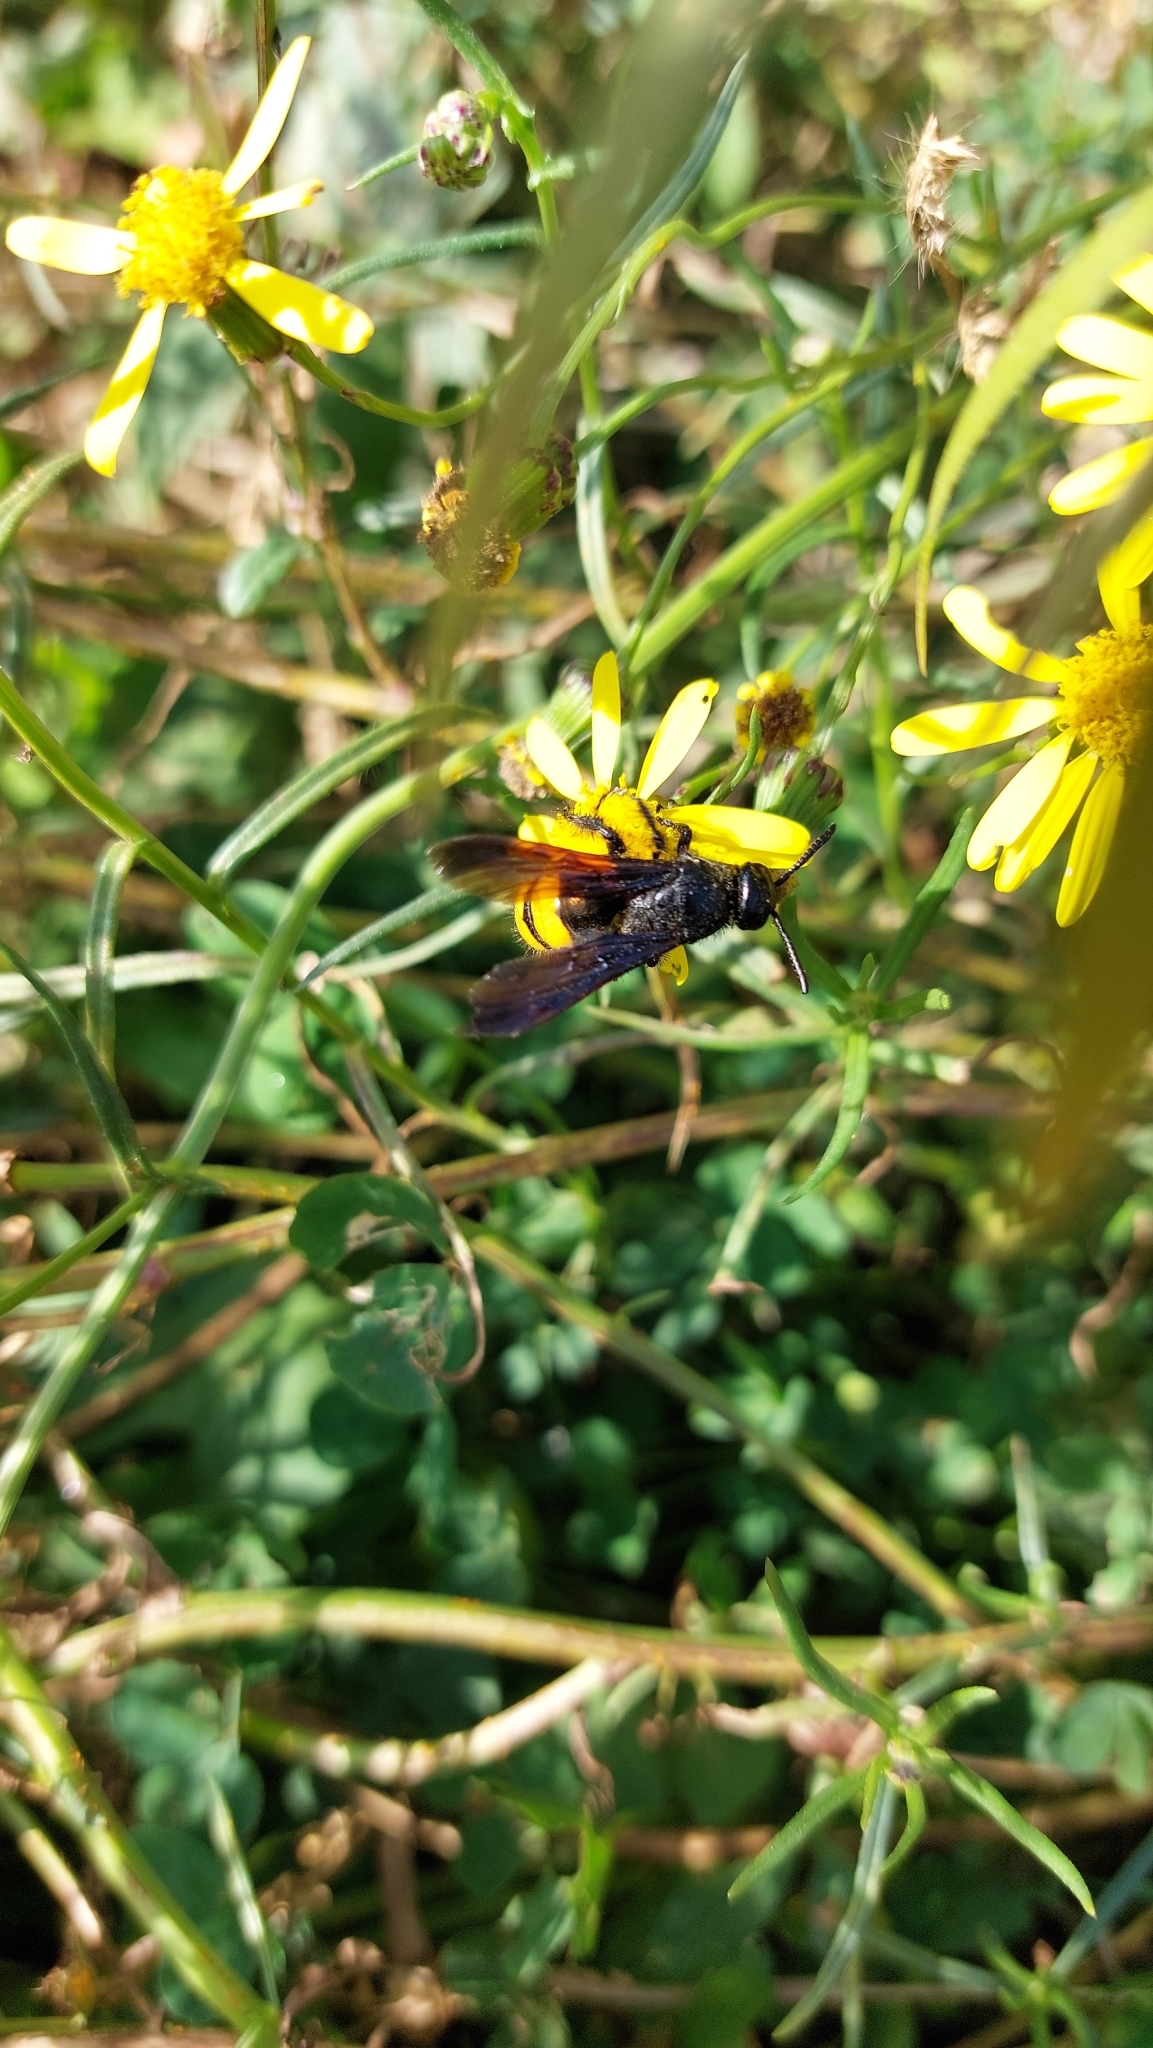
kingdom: Animalia
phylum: Arthropoda
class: Insecta
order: Hymenoptera
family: Scoliidae
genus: Scolia
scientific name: Scolia hirta
